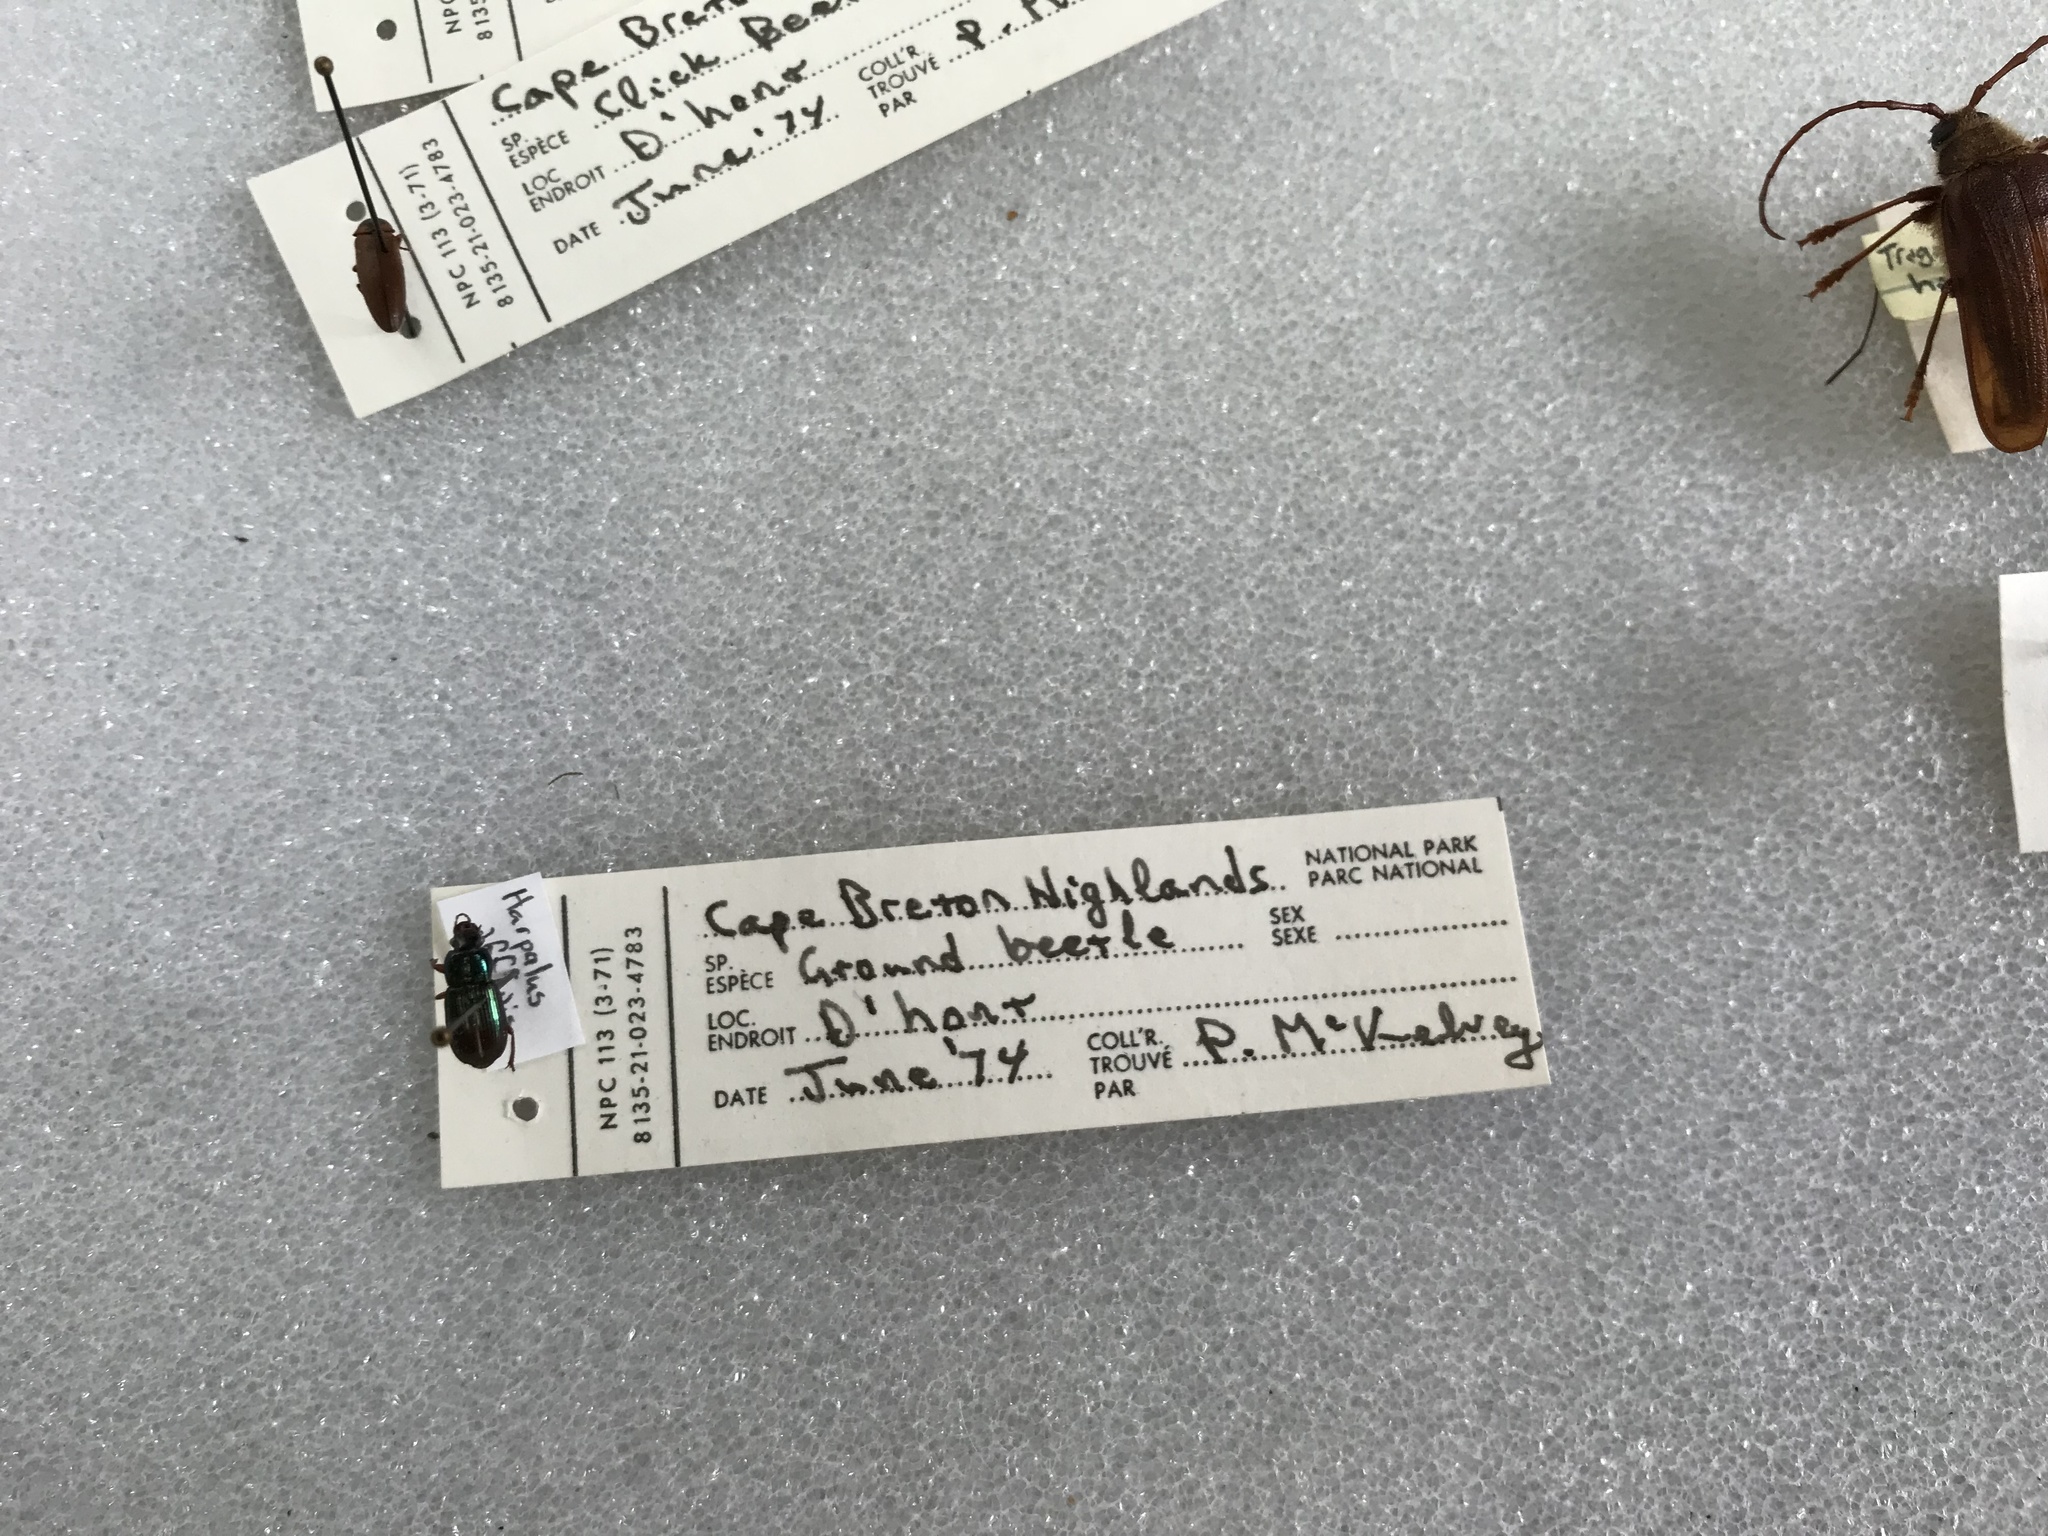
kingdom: Animalia
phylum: Arthropoda
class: Insecta
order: Coleoptera
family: Carabidae
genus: Harpalus
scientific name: Harpalus affinis
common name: Polychrome harp ground beetle
